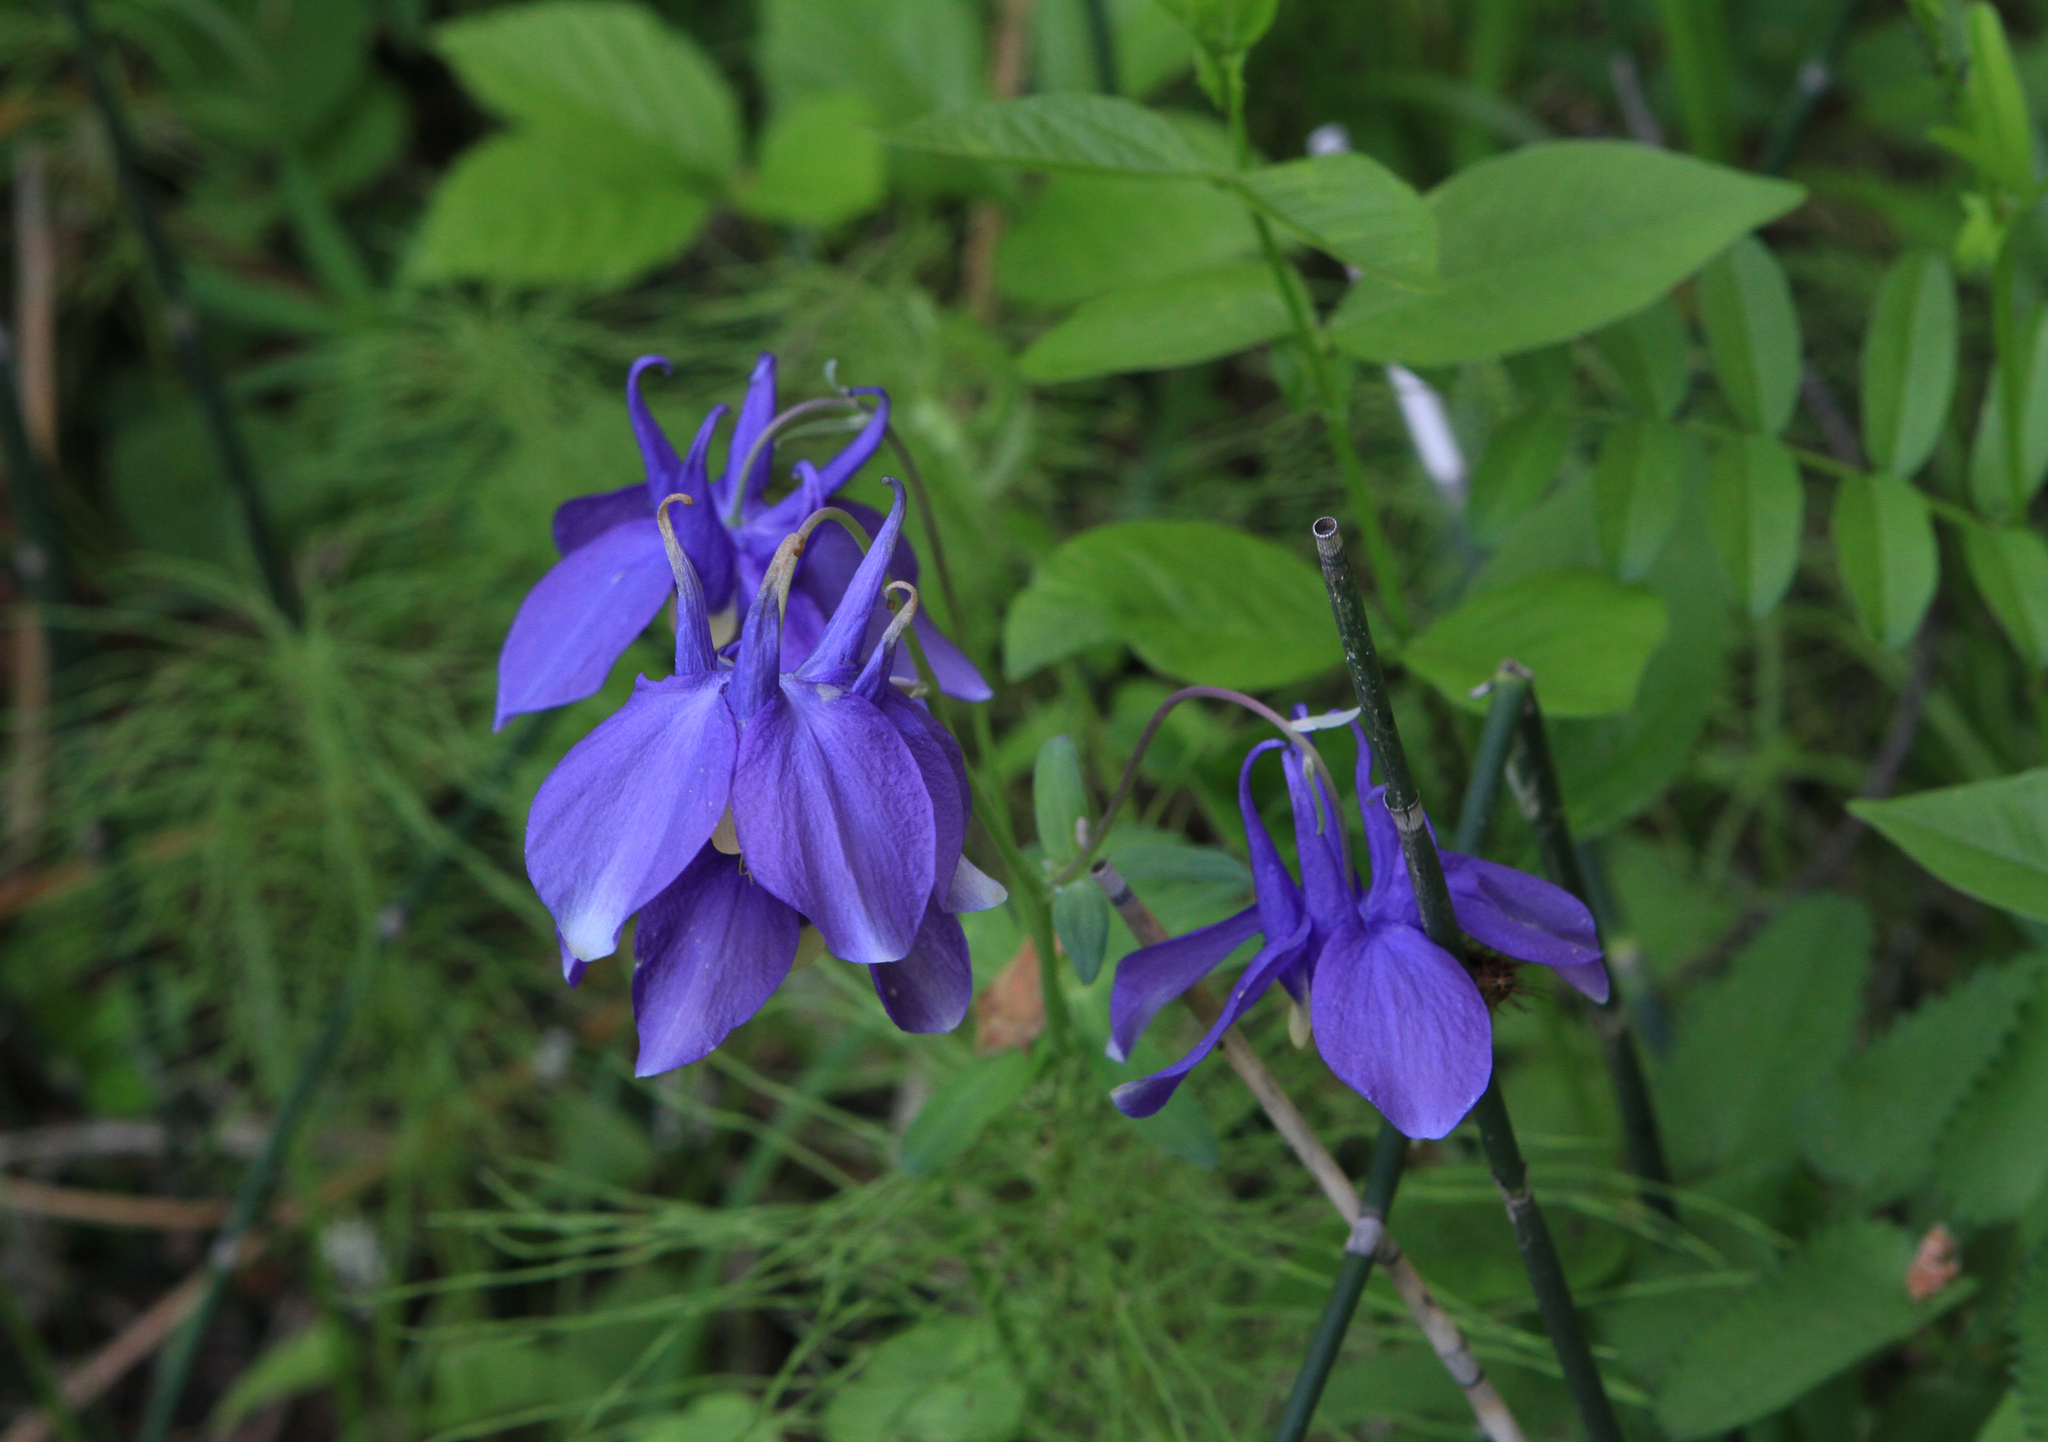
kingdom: Plantae
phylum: Tracheophyta
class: Magnoliopsida
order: Ranunculales
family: Ranunculaceae
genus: Aquilegia
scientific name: Aquilegia sibirica
